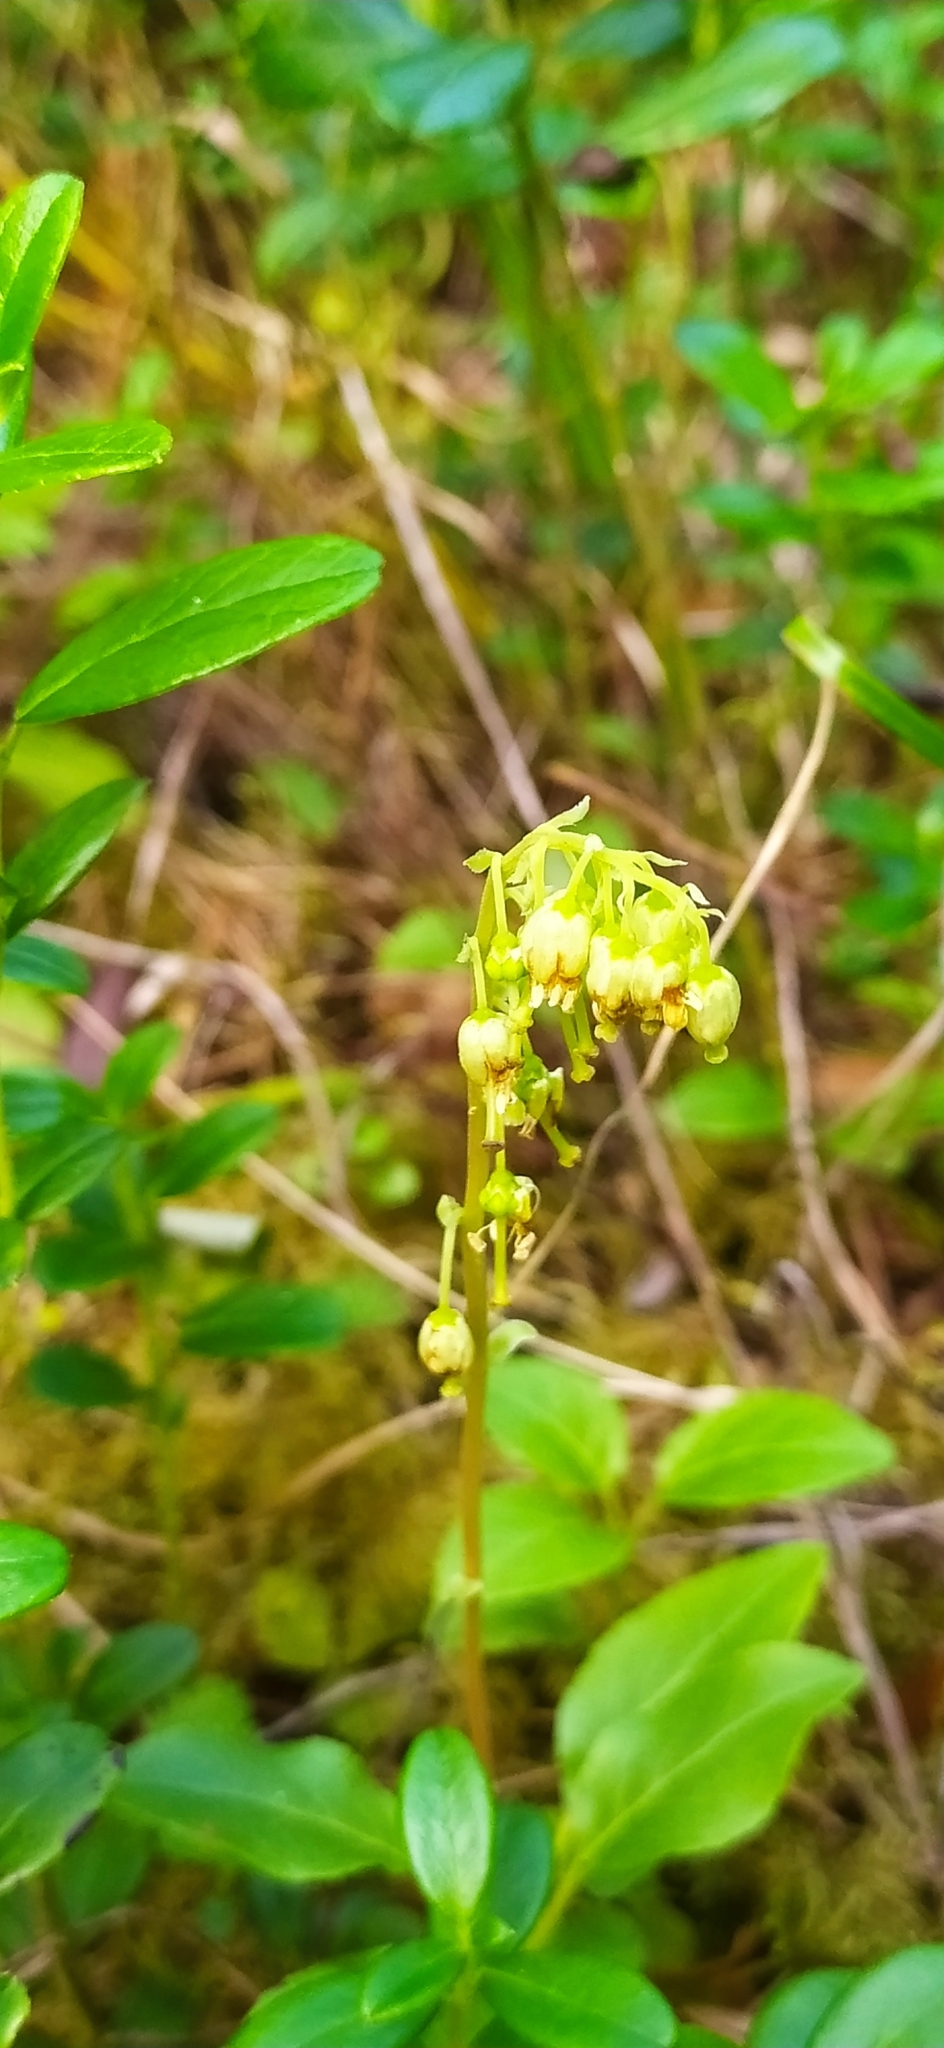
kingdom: Plantae
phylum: Tracheophyta
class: Magnoliopsida
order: Ericales
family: Ericaceae
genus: Orthilia
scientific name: Orthilia secunda
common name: One-sided orthilia
